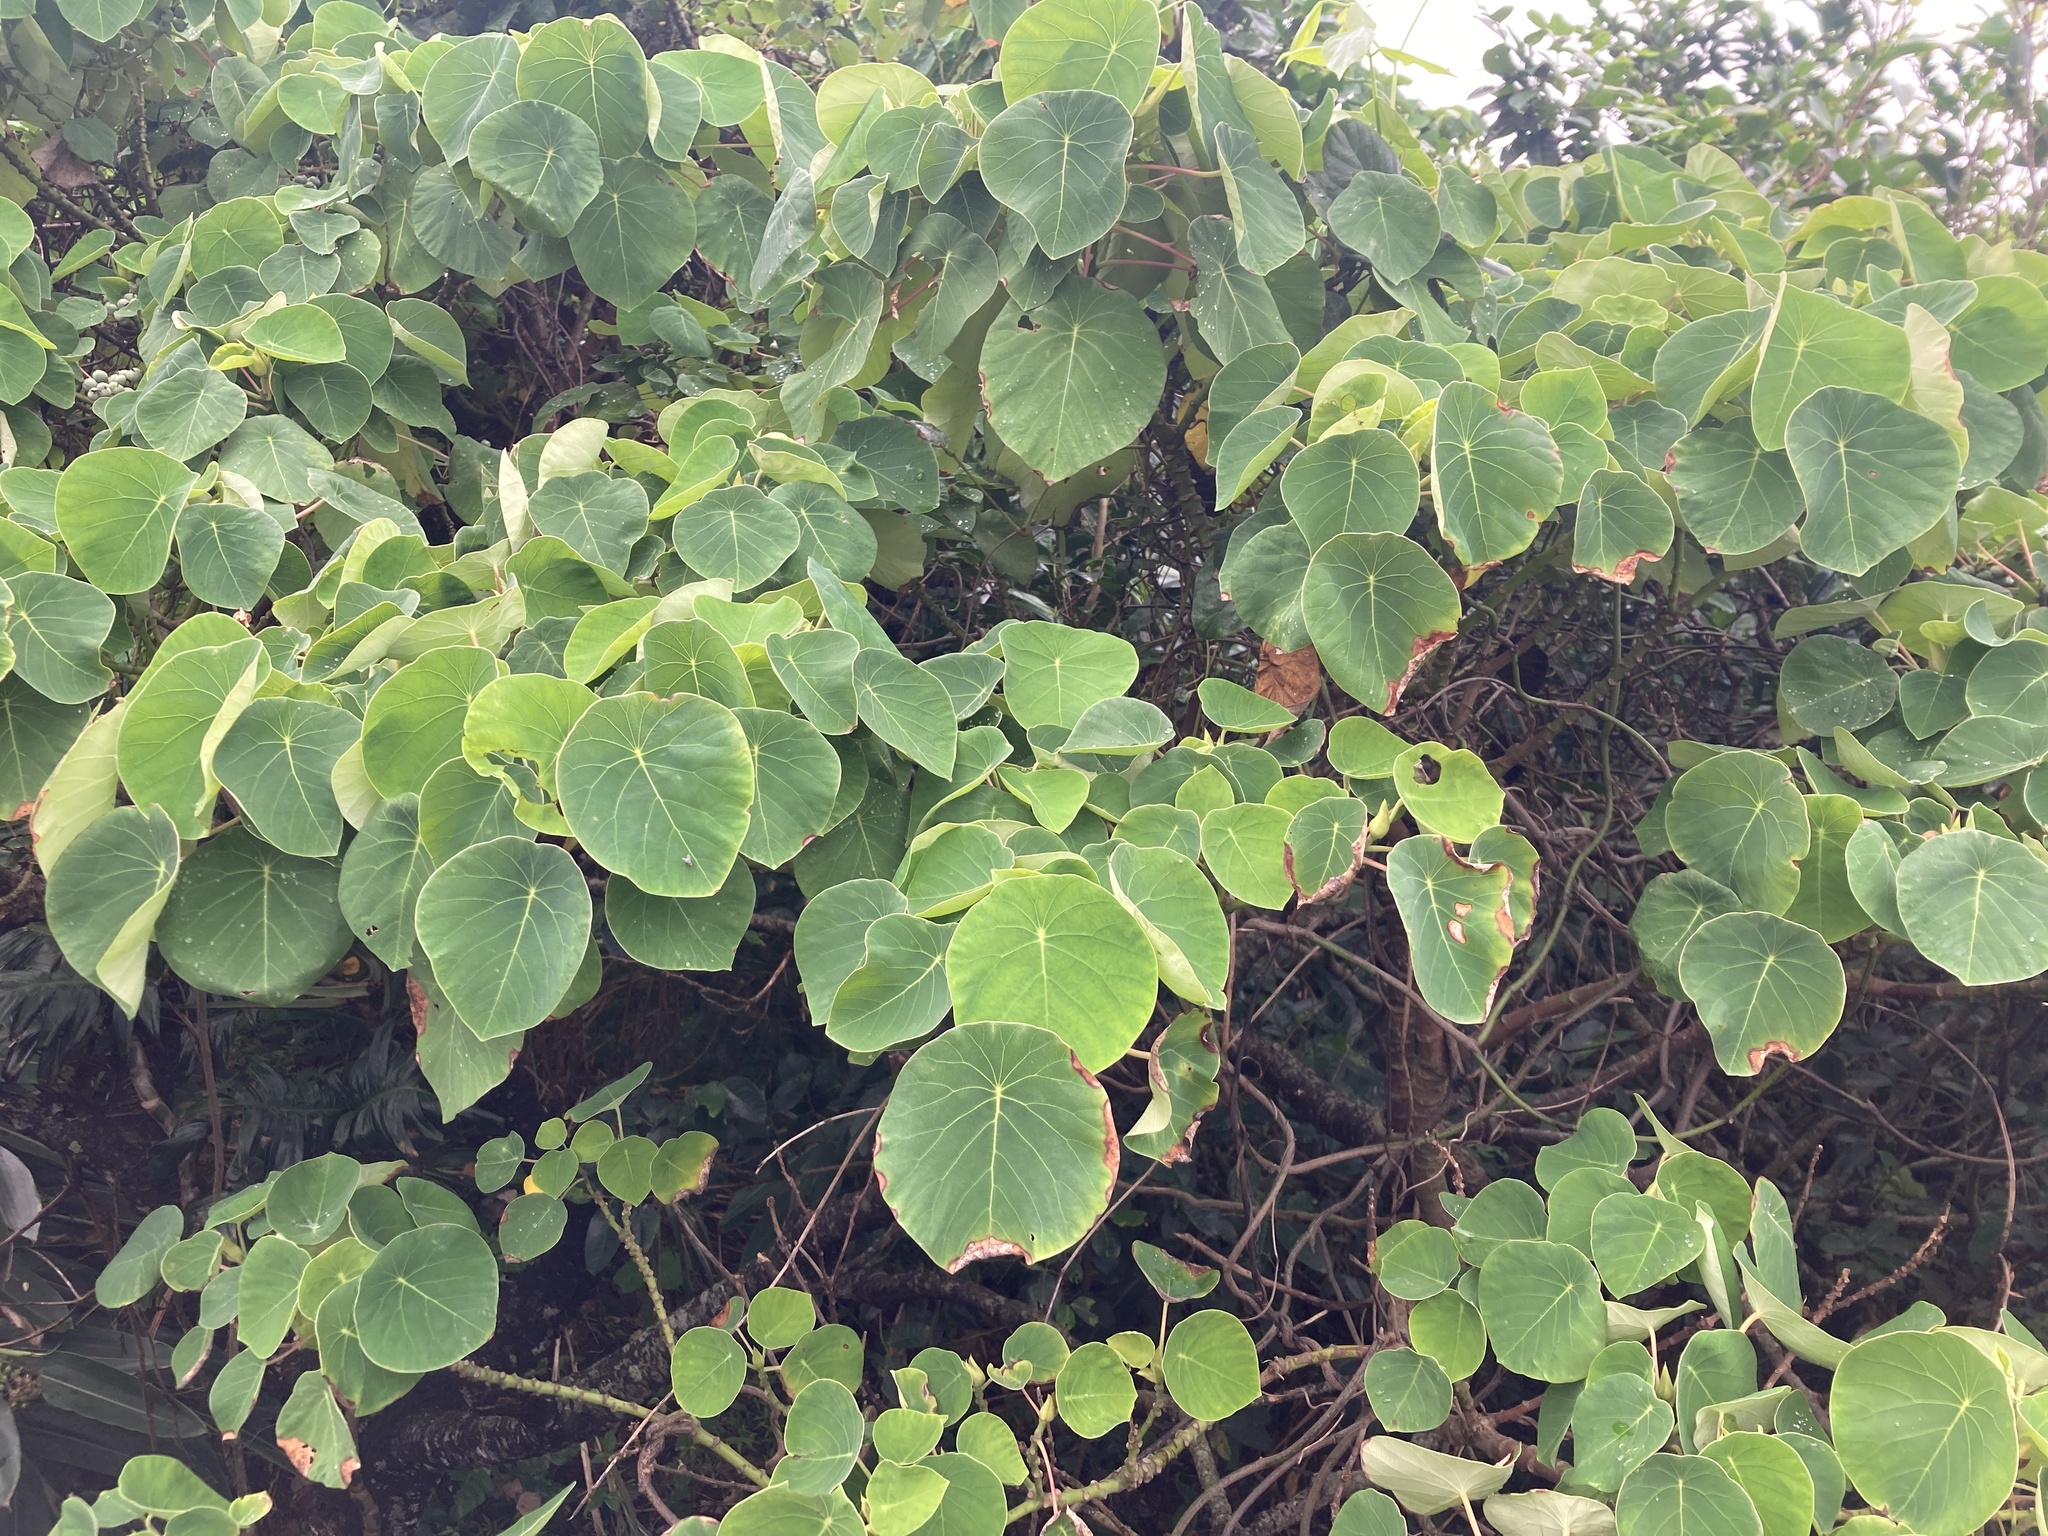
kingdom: Plantae
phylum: Tracheophyta
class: Magnoliopsida
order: Malpighiales
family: Euphorbiaceae
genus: Homalanthus
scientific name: Homalanthus fastuosus
